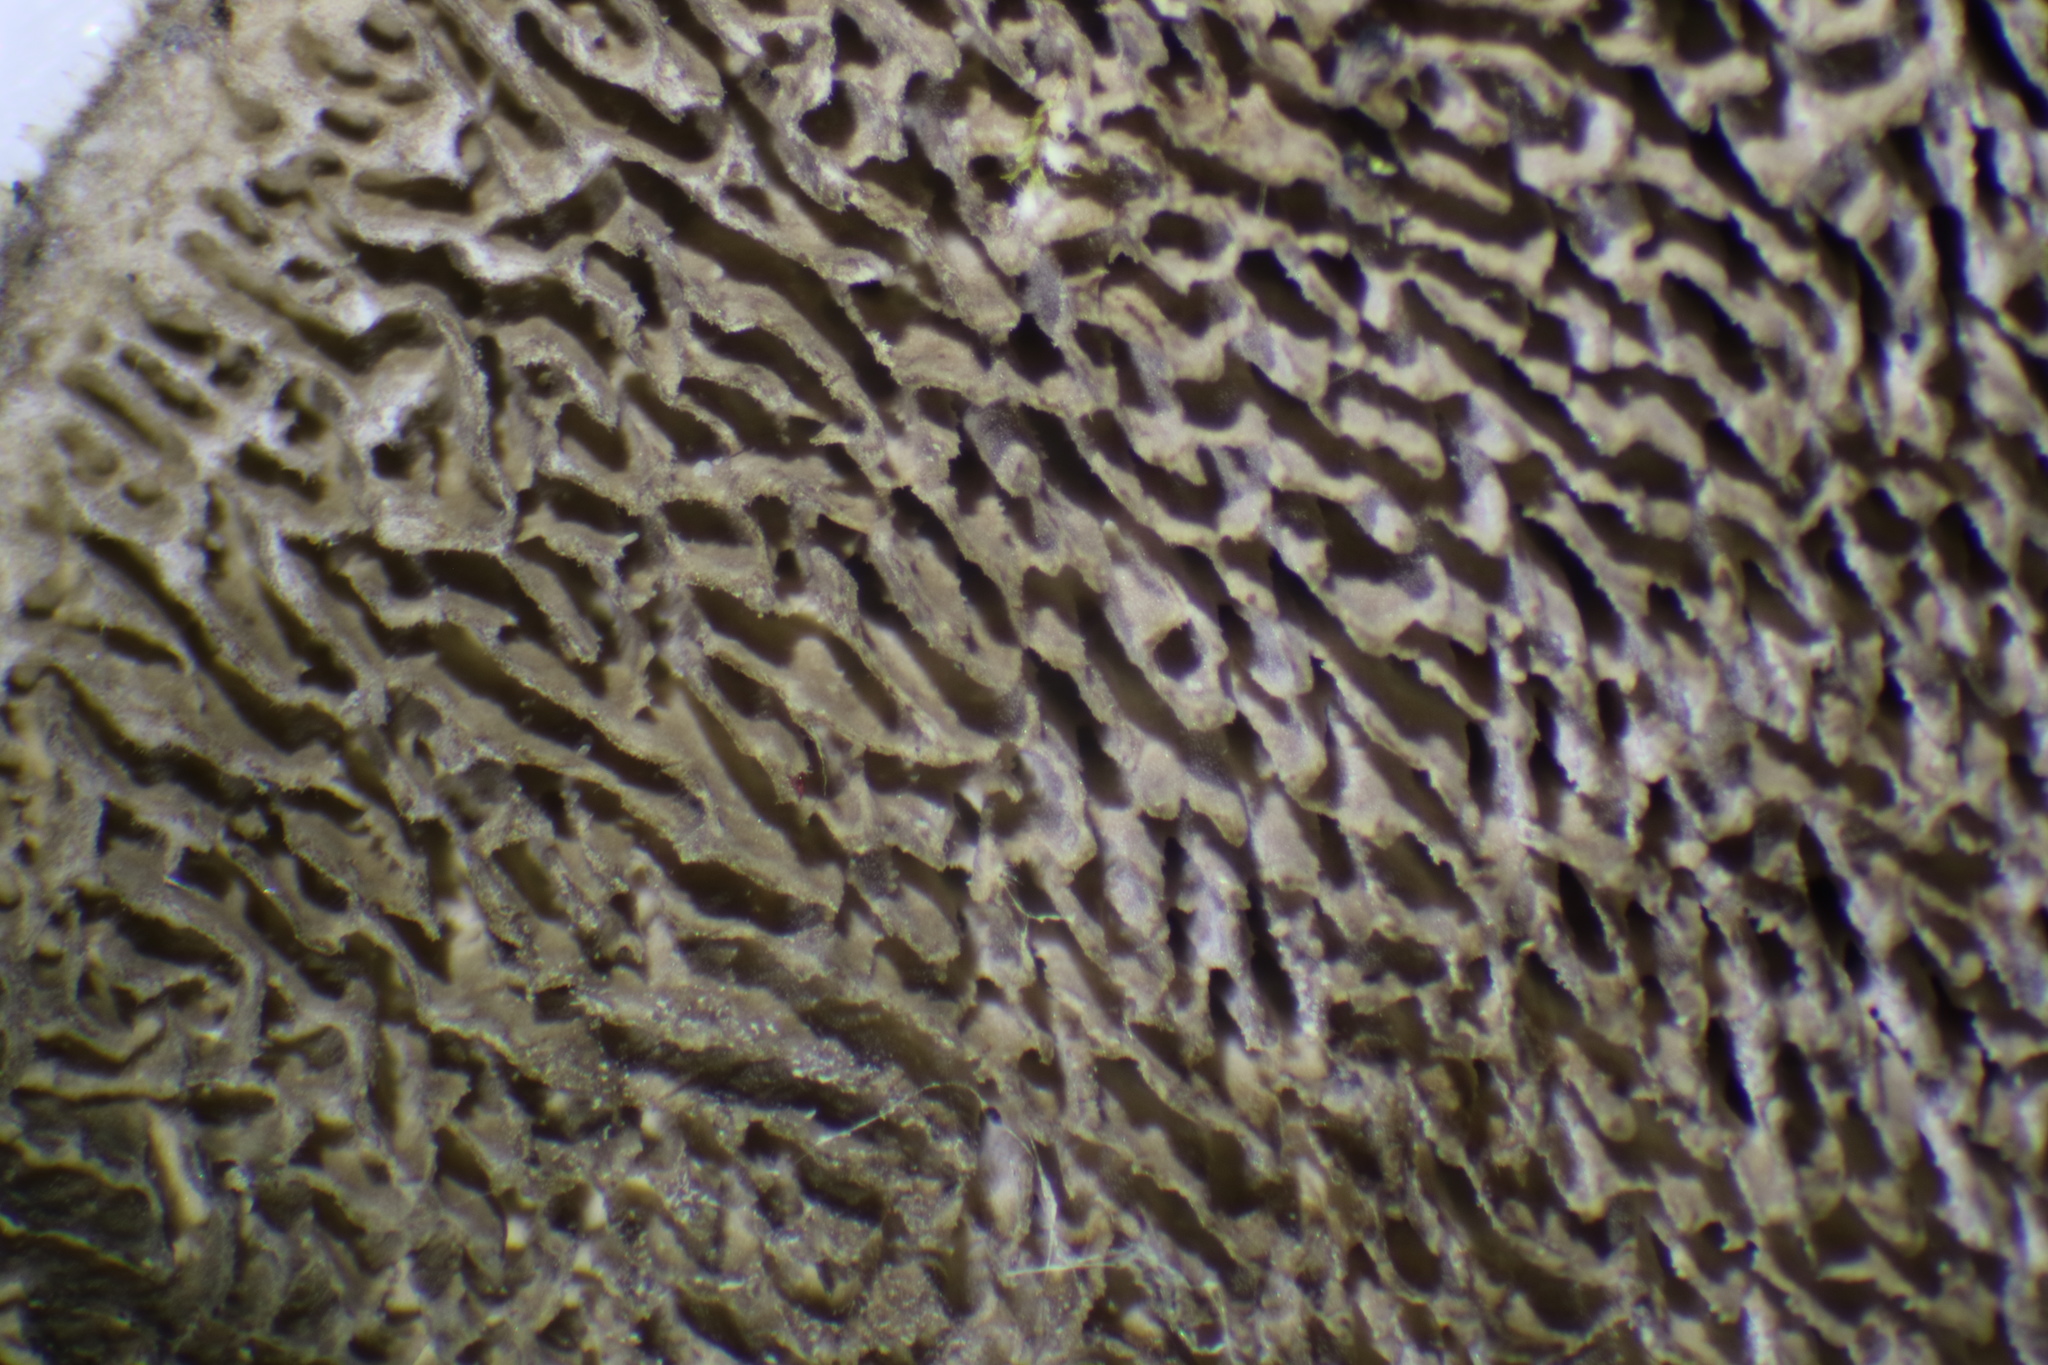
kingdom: Fungi
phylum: Basidiomycota
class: Agaricomycetes
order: Polyporales
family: Cerrenaceae
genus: Cerrena
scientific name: Cerrena unicolor
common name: Mossy maze polypore
